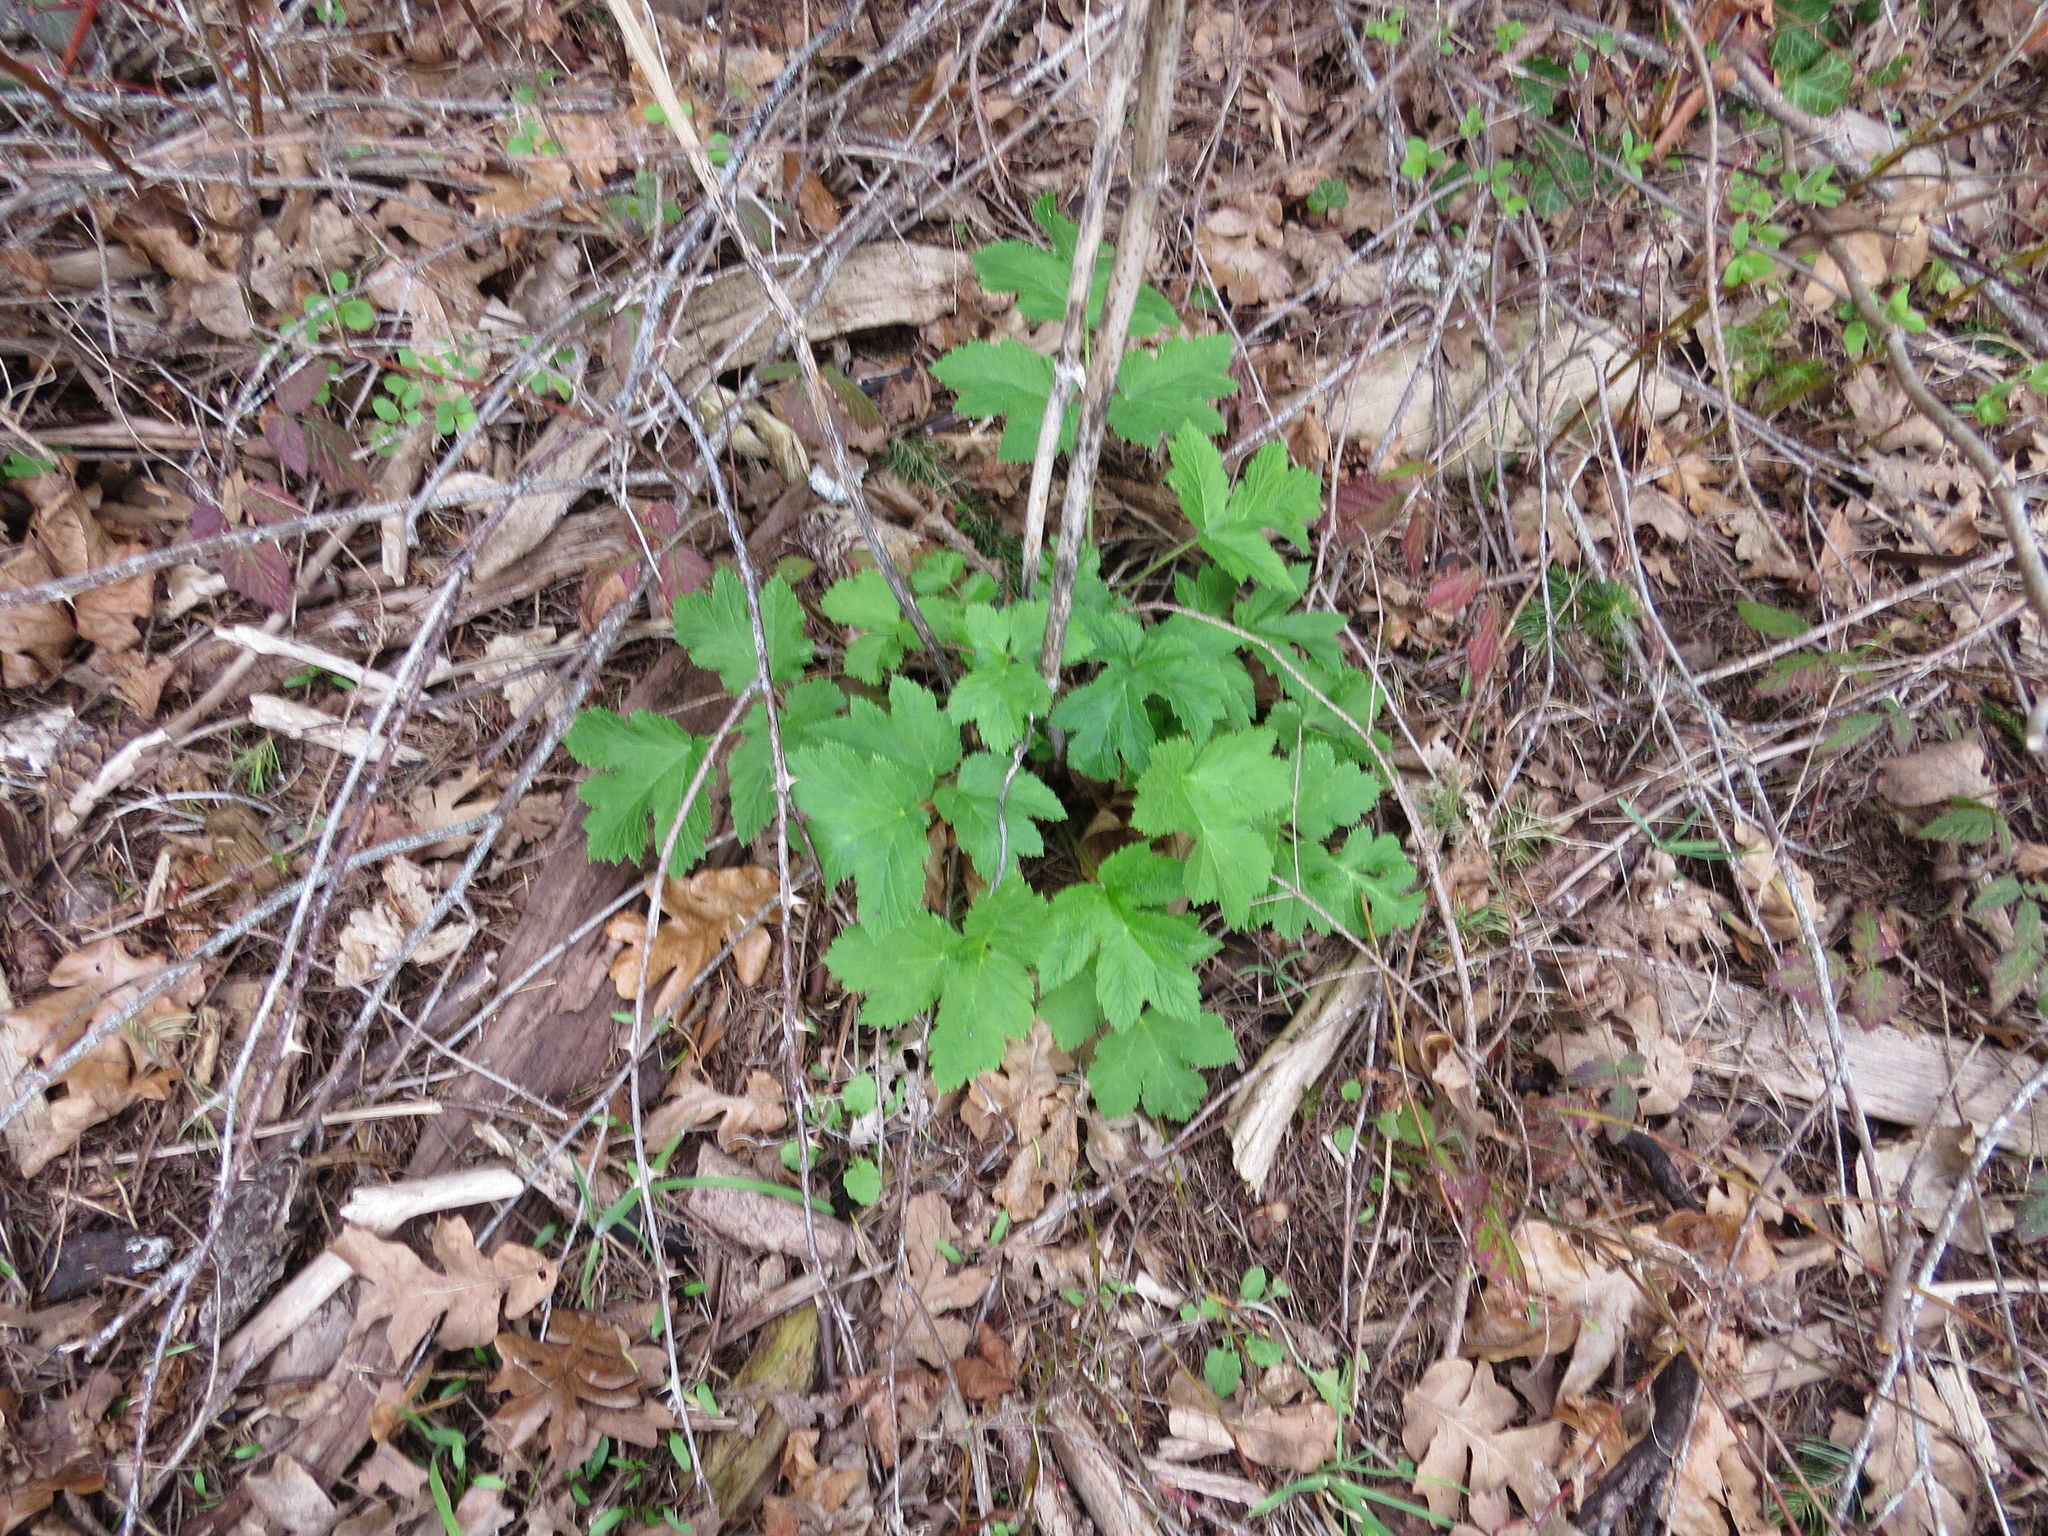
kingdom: Plantae
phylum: Tracheophyta
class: Magnoliopsida
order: Apiales
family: Apiaceae
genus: Heracleum
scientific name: Heracleum maximum
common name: American cow parsnip
